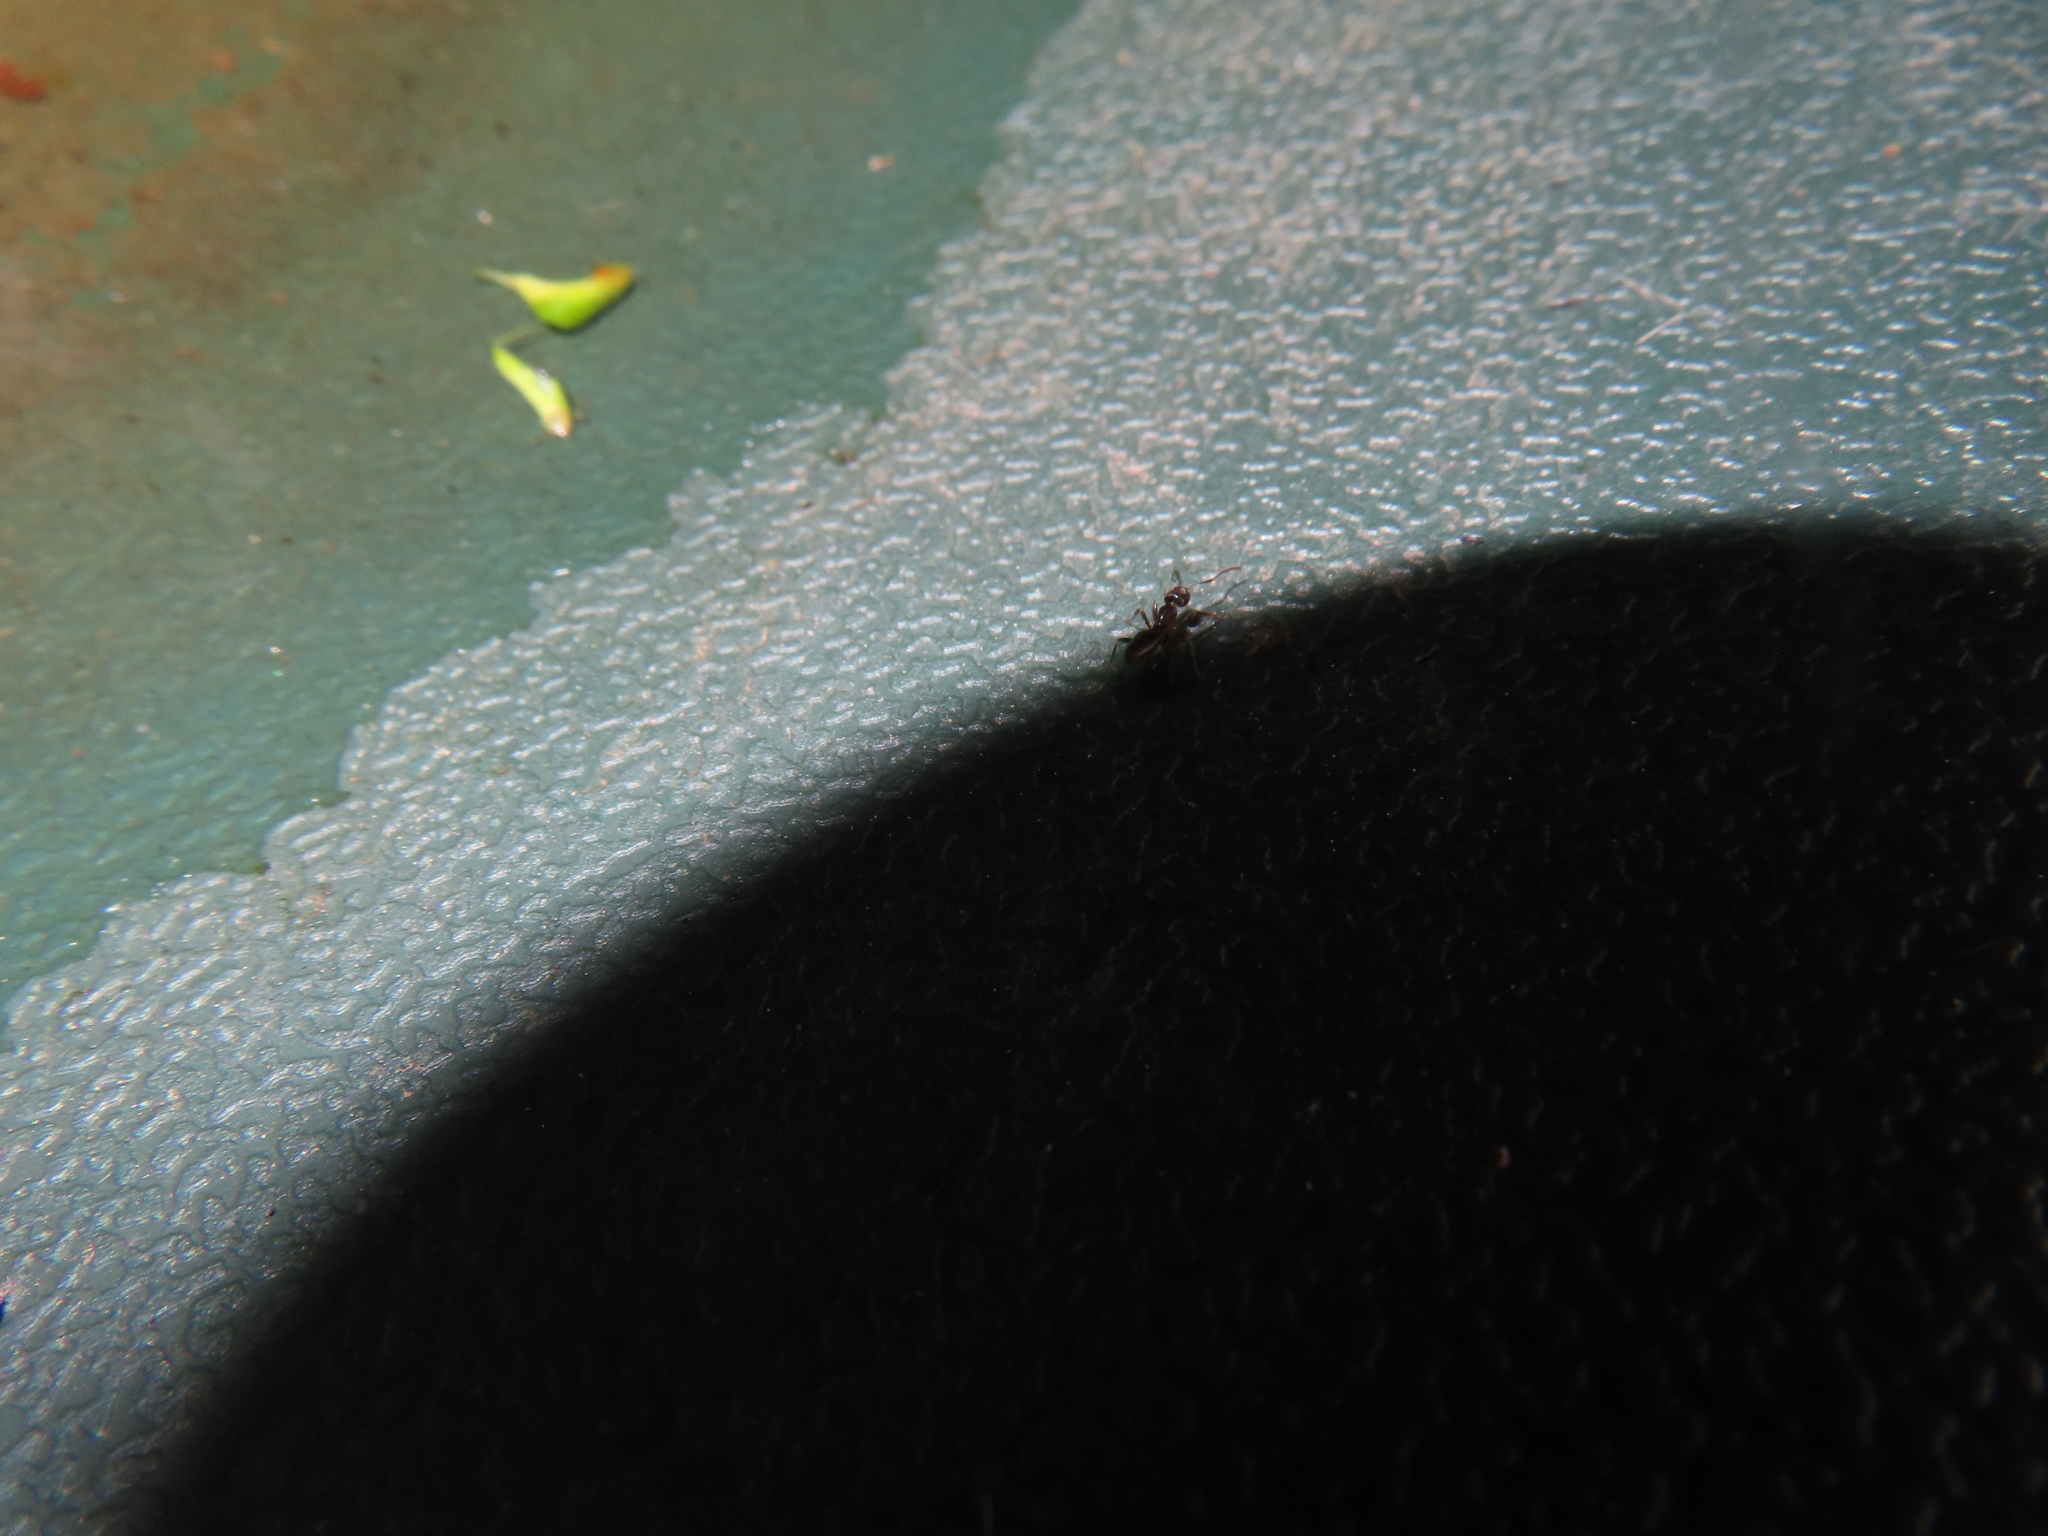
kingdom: Animalia
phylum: Arthropoda
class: Insecta
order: Hymenoptera
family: Formicidae
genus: Tapinoma
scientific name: Tapinoma sessile
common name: Odorous house ant
